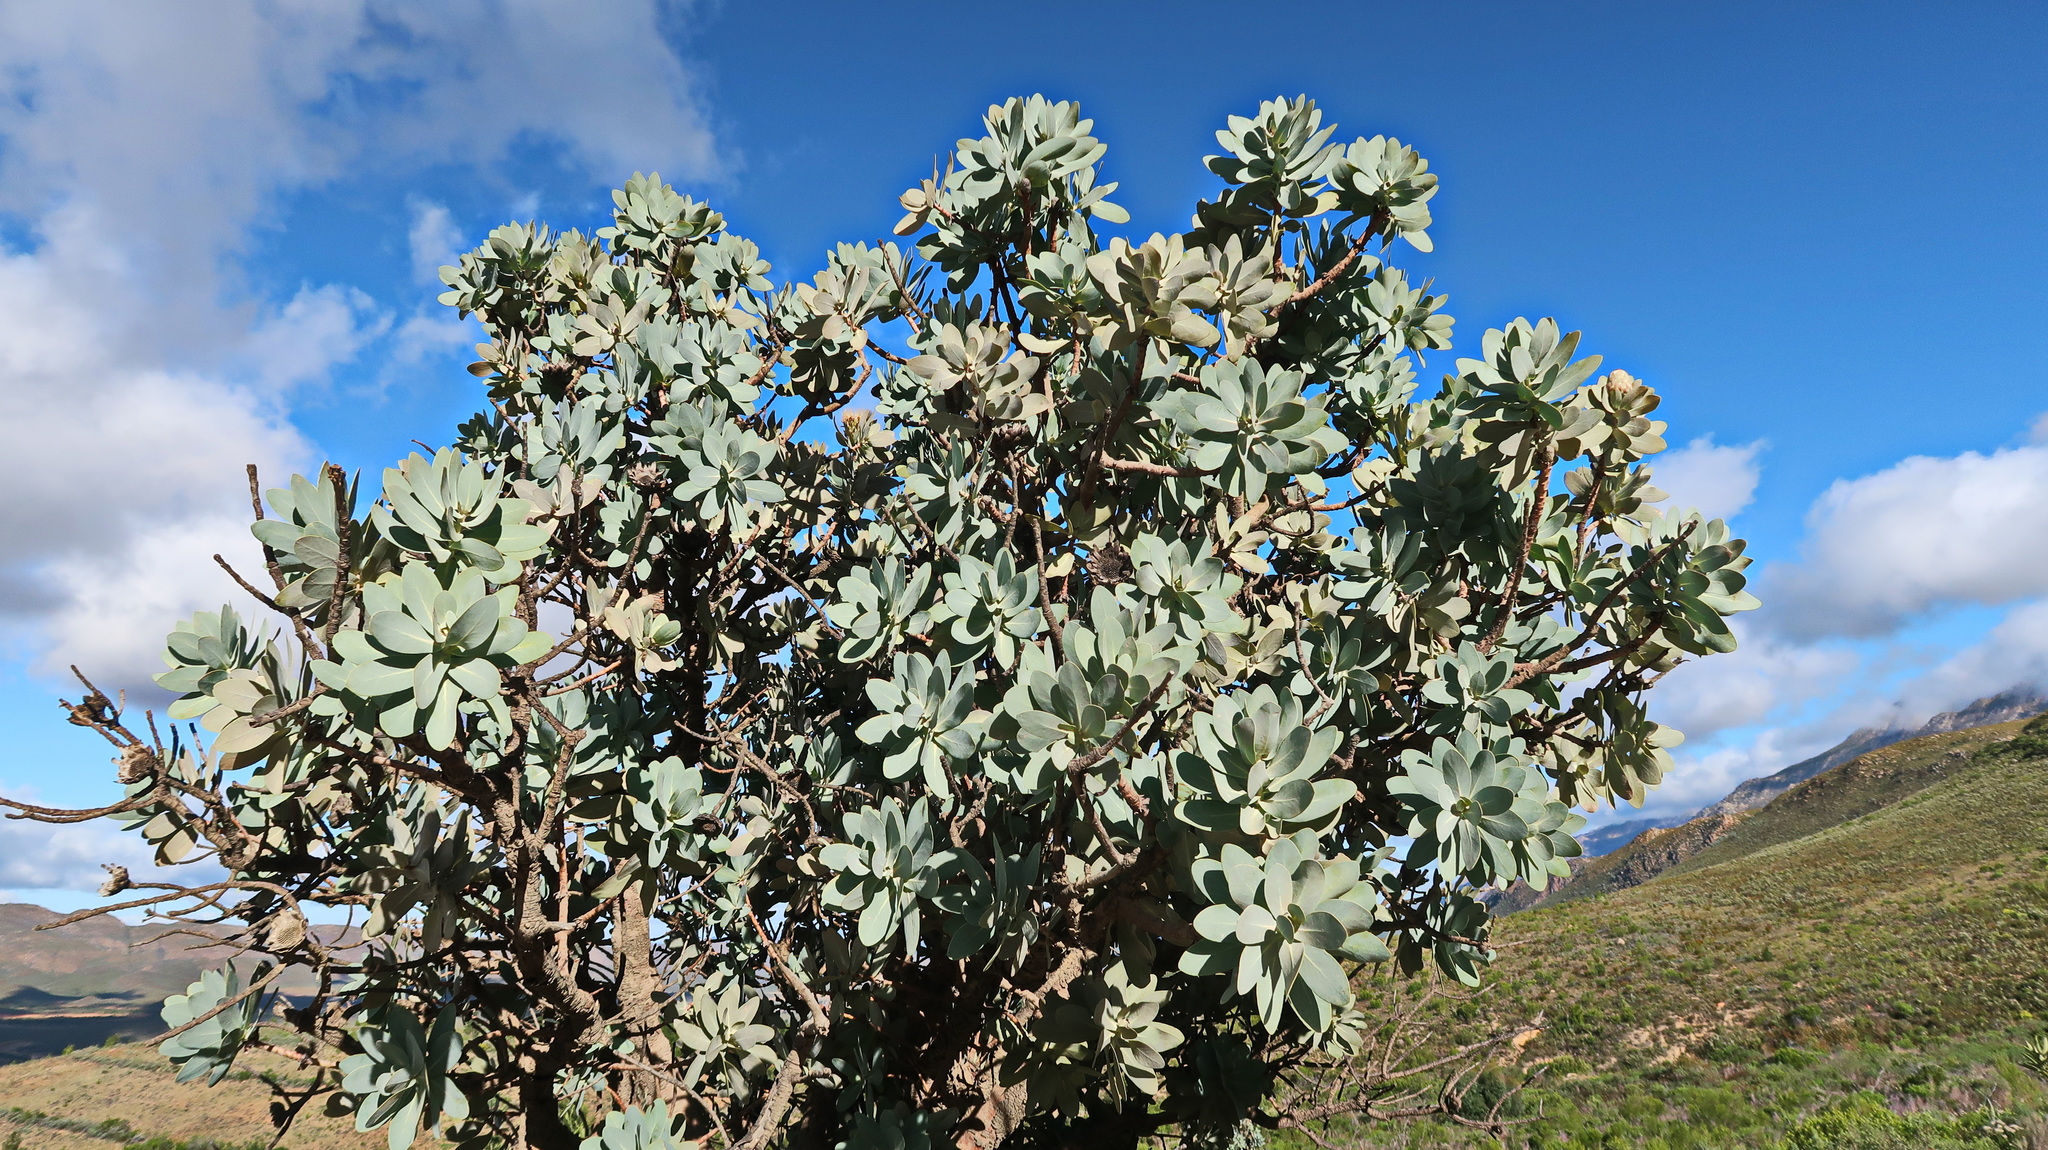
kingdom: Plantae
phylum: Tracheophyta
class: Magnoliopsida
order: Proteales
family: Proteaceae
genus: Protea
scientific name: Protea nitida
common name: Tree protea
